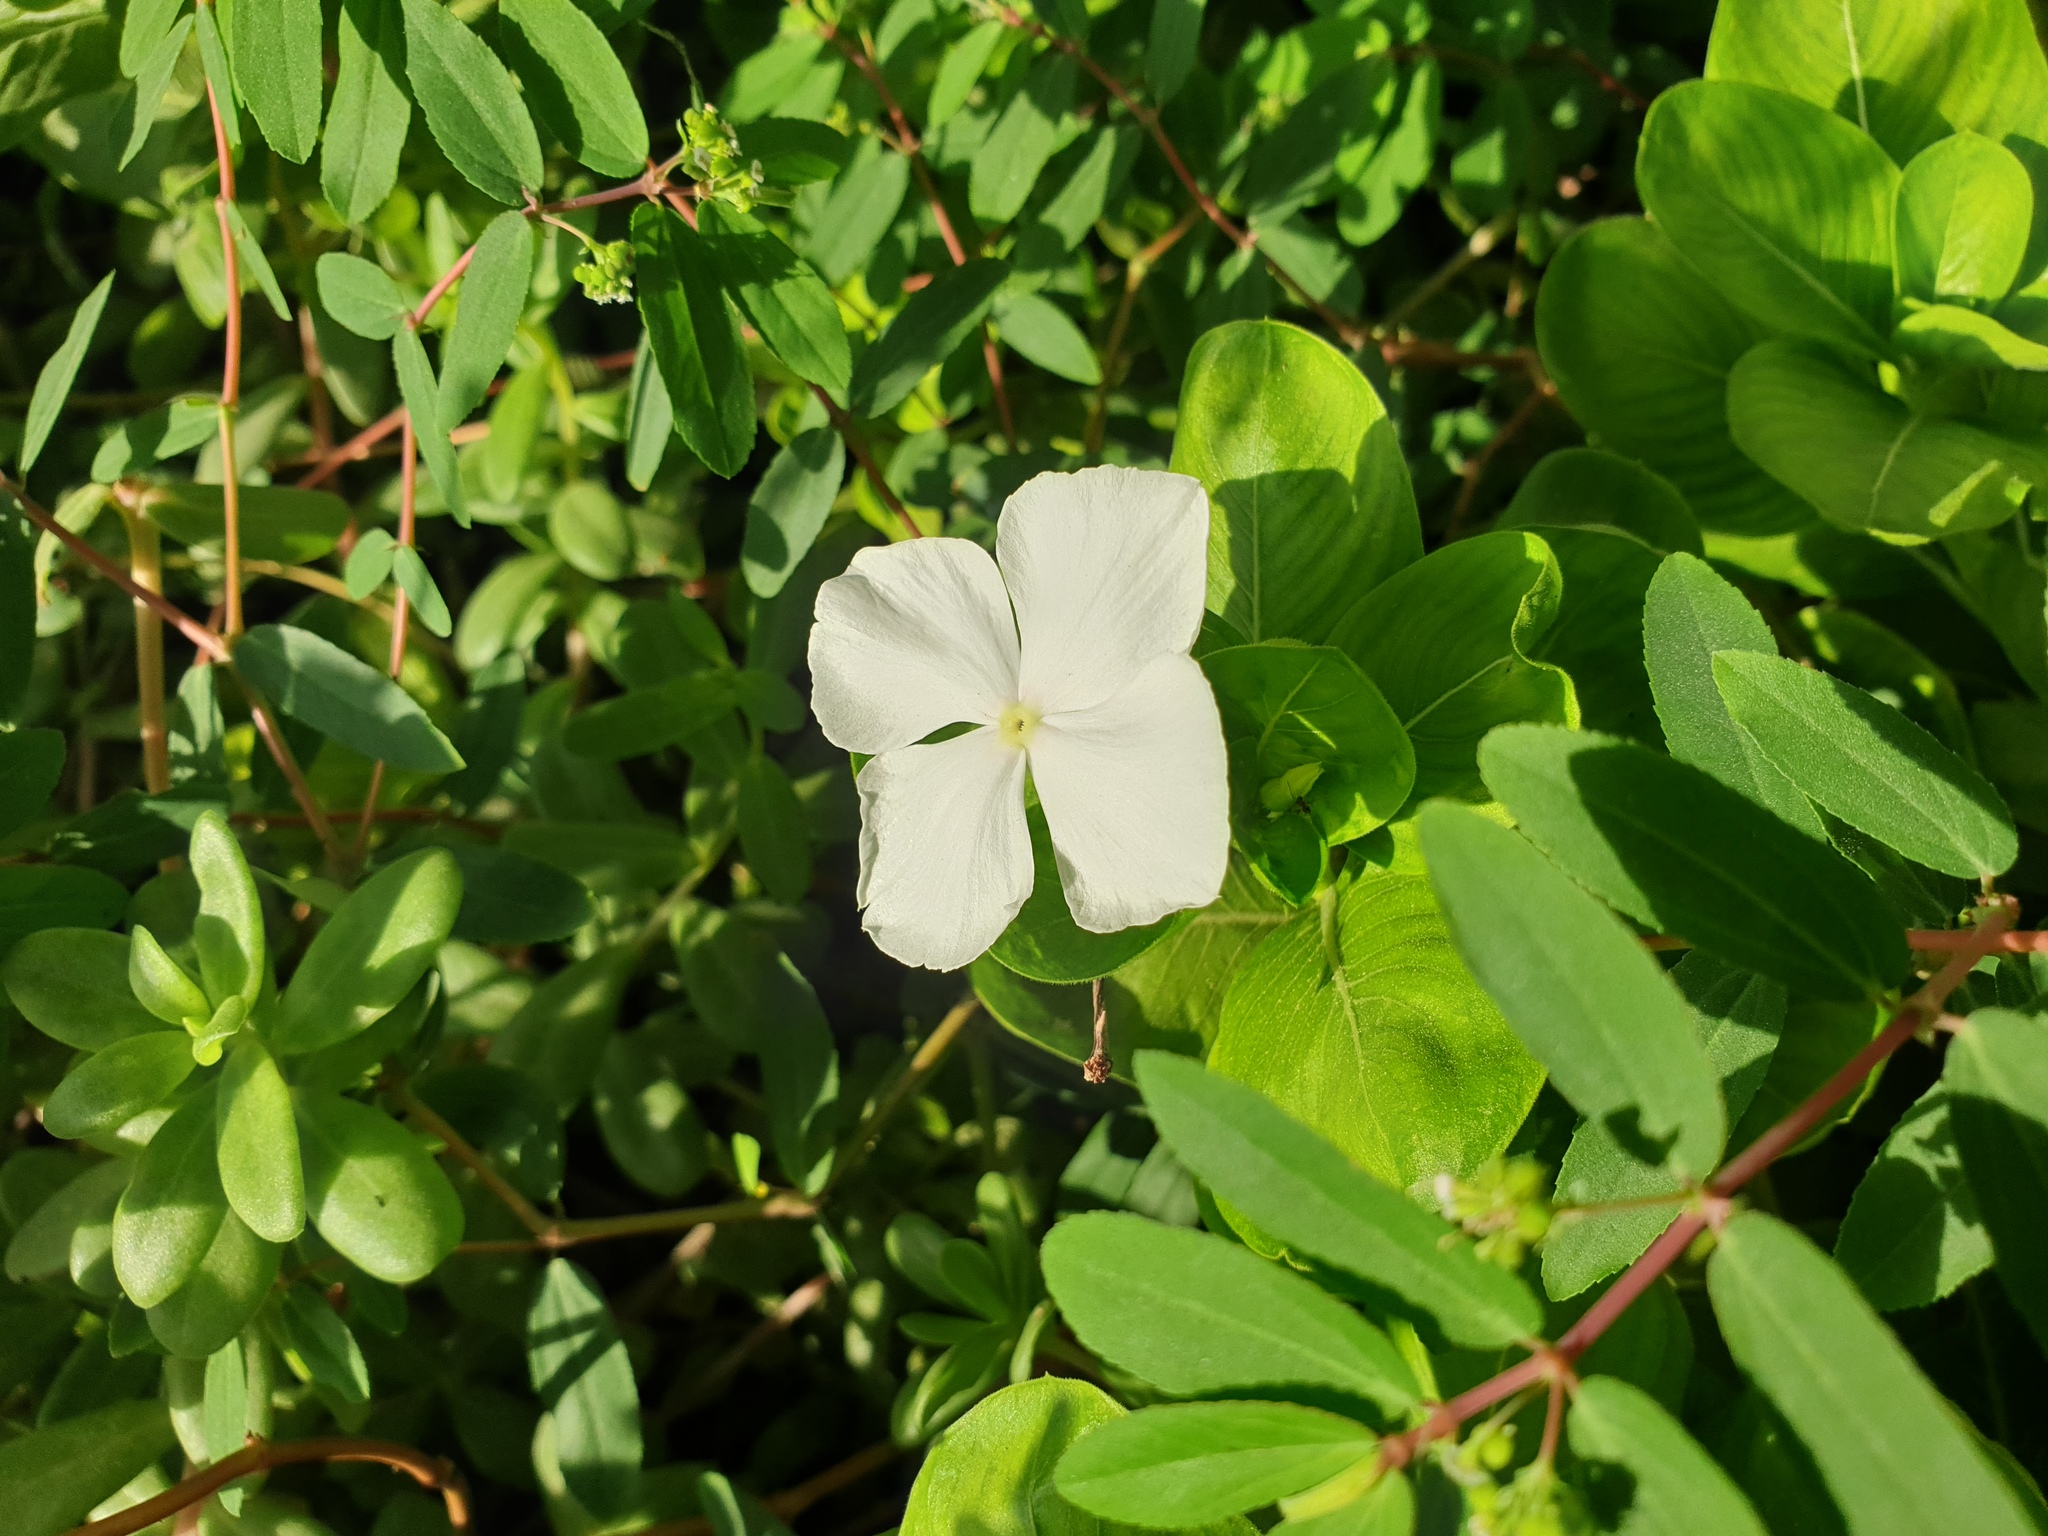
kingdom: Plantae
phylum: Tracheophyta
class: Magnoliopsida
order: Gentianales
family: Apocynaceae
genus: Catharanthus
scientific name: Catharanthus roseus
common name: Madagascar periwinkle
